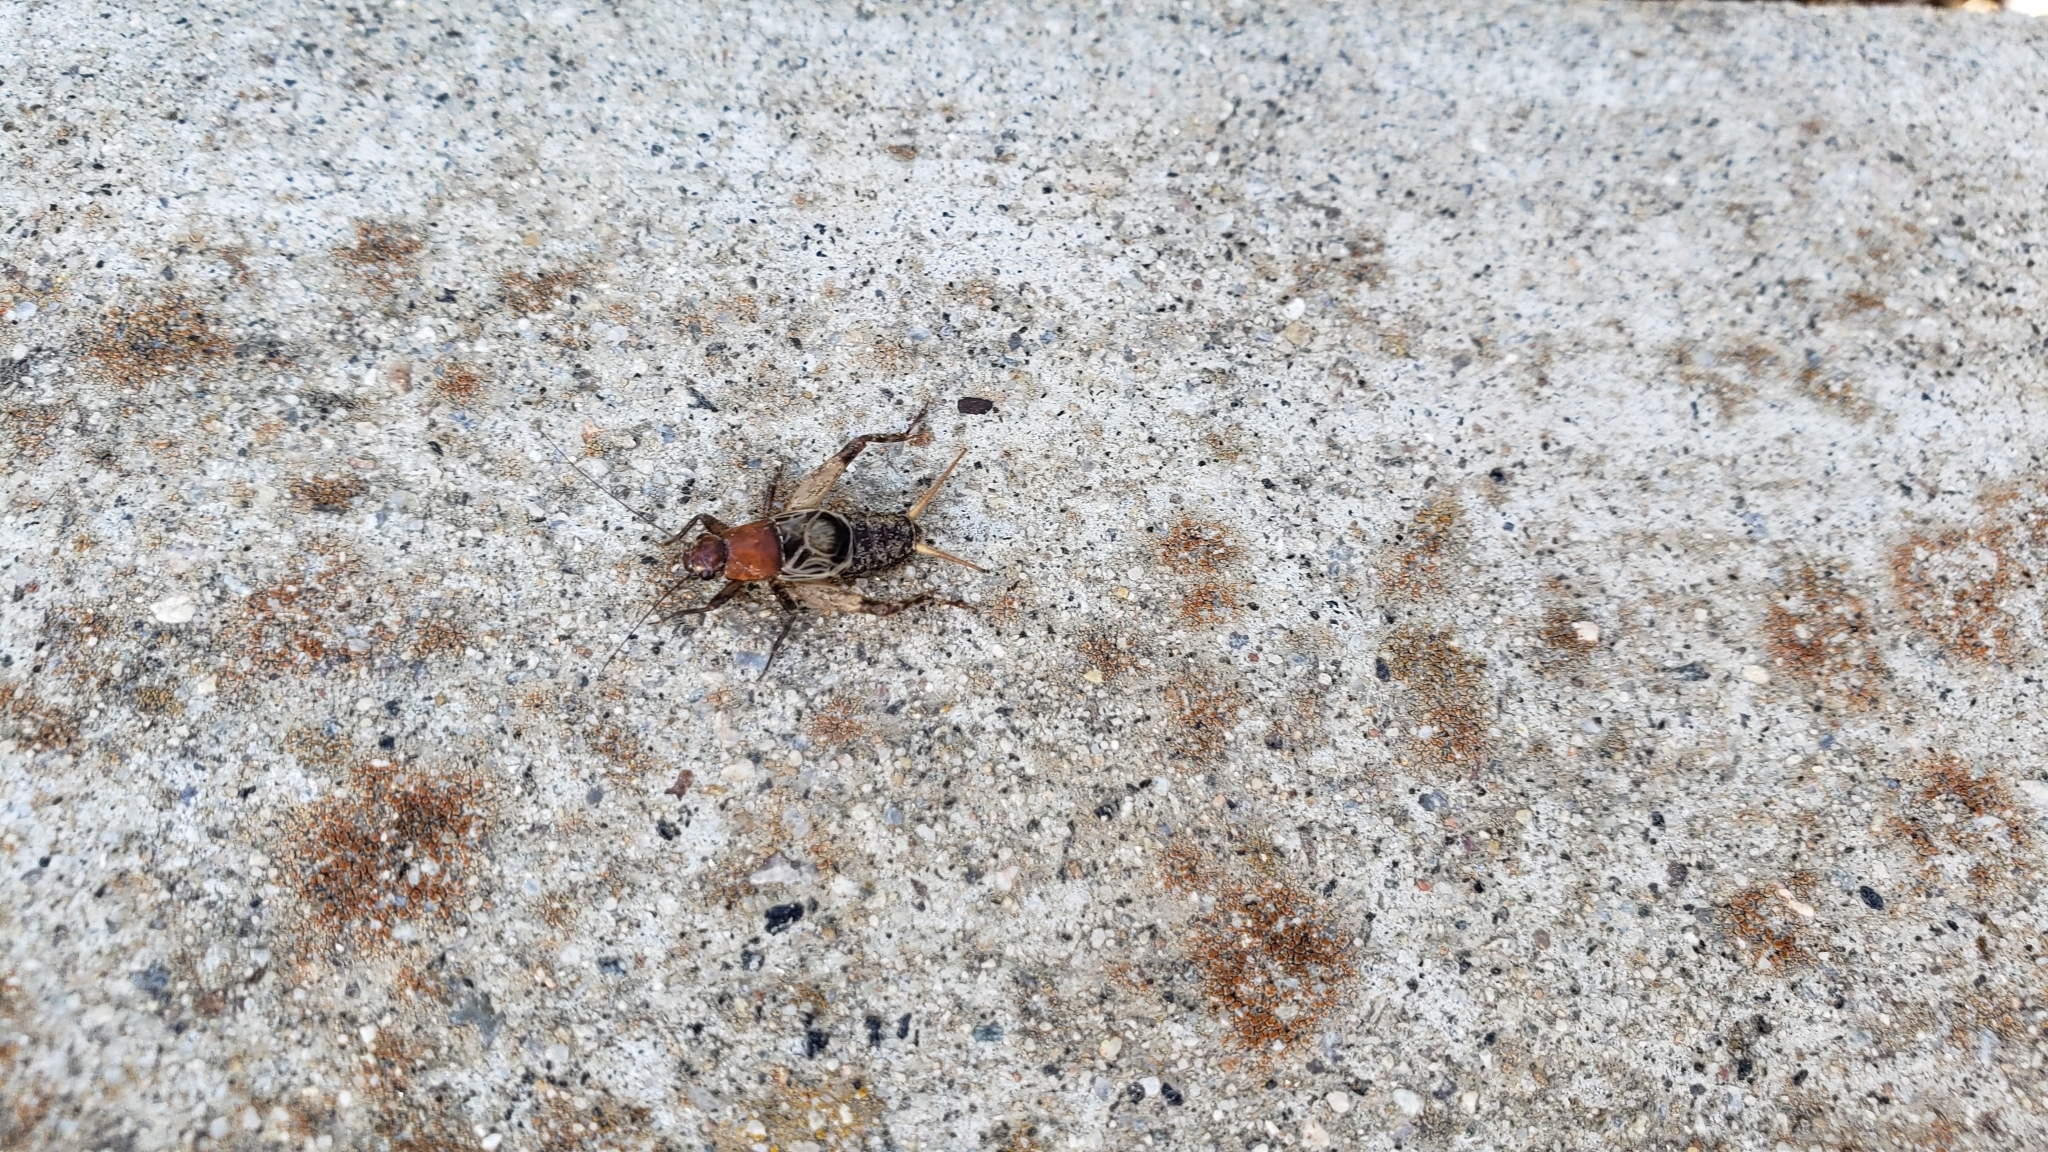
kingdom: Animalia
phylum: Arthropoda
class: Insecta
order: Orthoptera
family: Mogoplistidae
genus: Hoplosphyrum
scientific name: Hoplosphyrum boreale
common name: Long-winged scaly cricket
